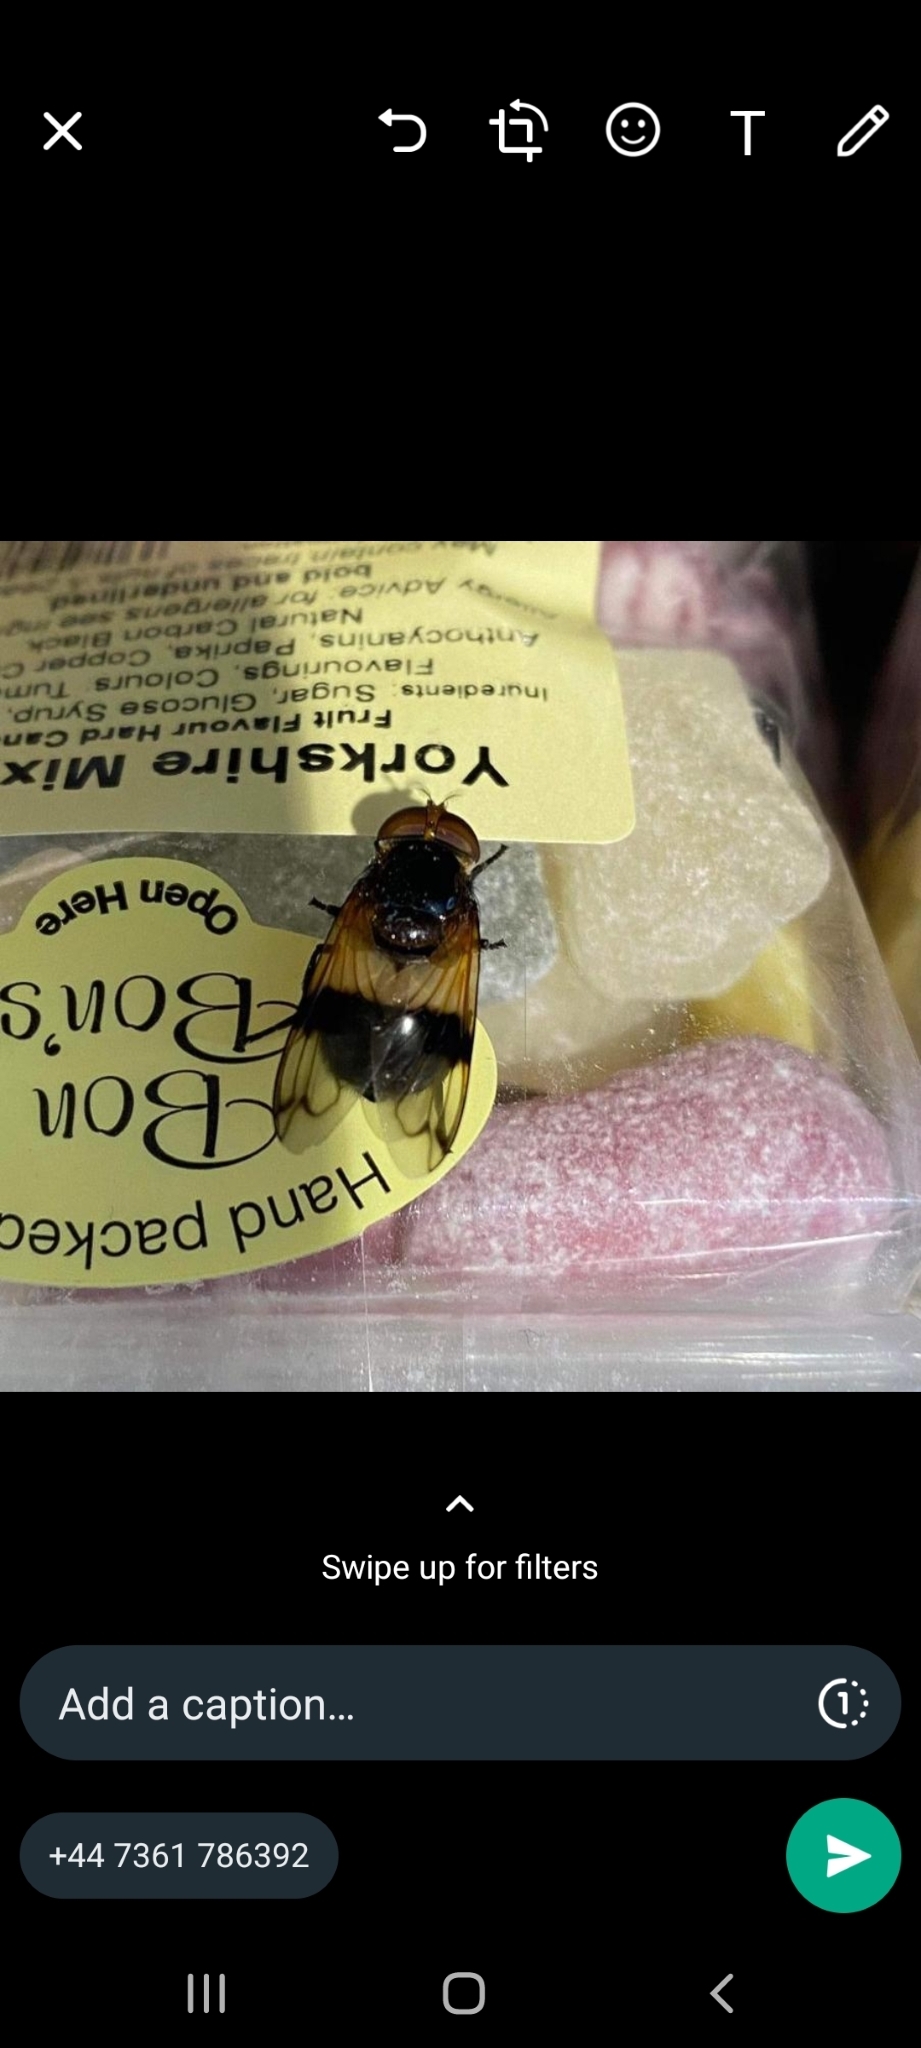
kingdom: Animalia
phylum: Arthropoda
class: Insecta
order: Diptera
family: Syrphidae
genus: Volucella
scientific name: Volucella pellucens
